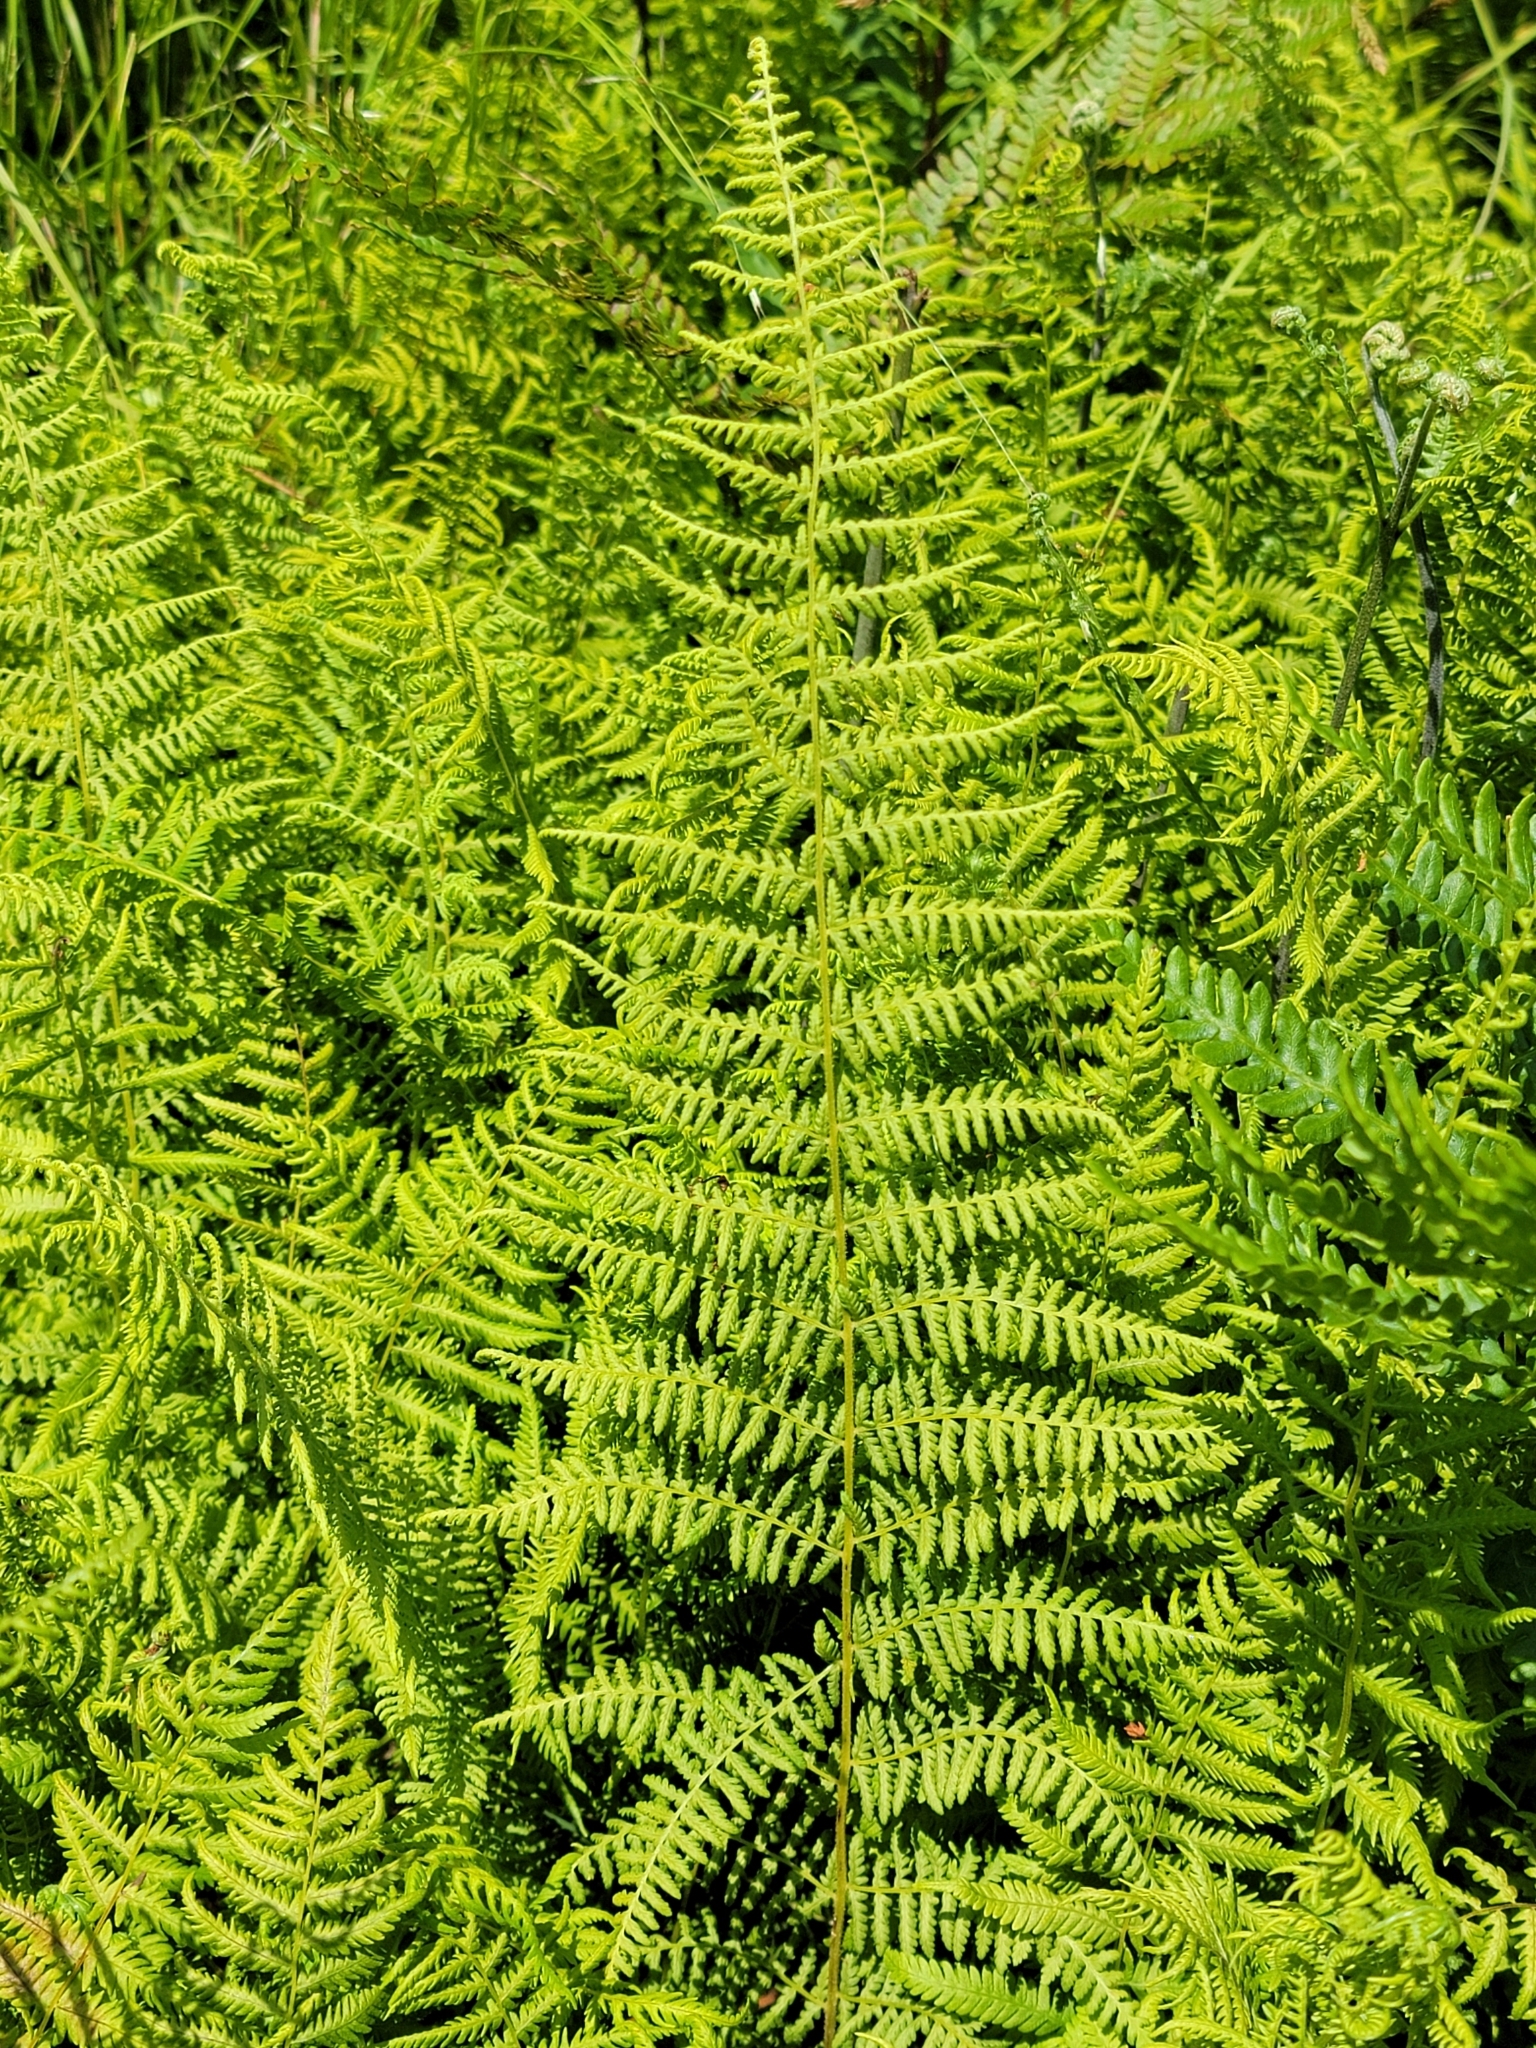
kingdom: Plantae
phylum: Tracheophyta
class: Polypodiopsida
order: Polypodiales
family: Dennstaedtiaceae
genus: Sitobolium
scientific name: Sitobolium punctilobum
